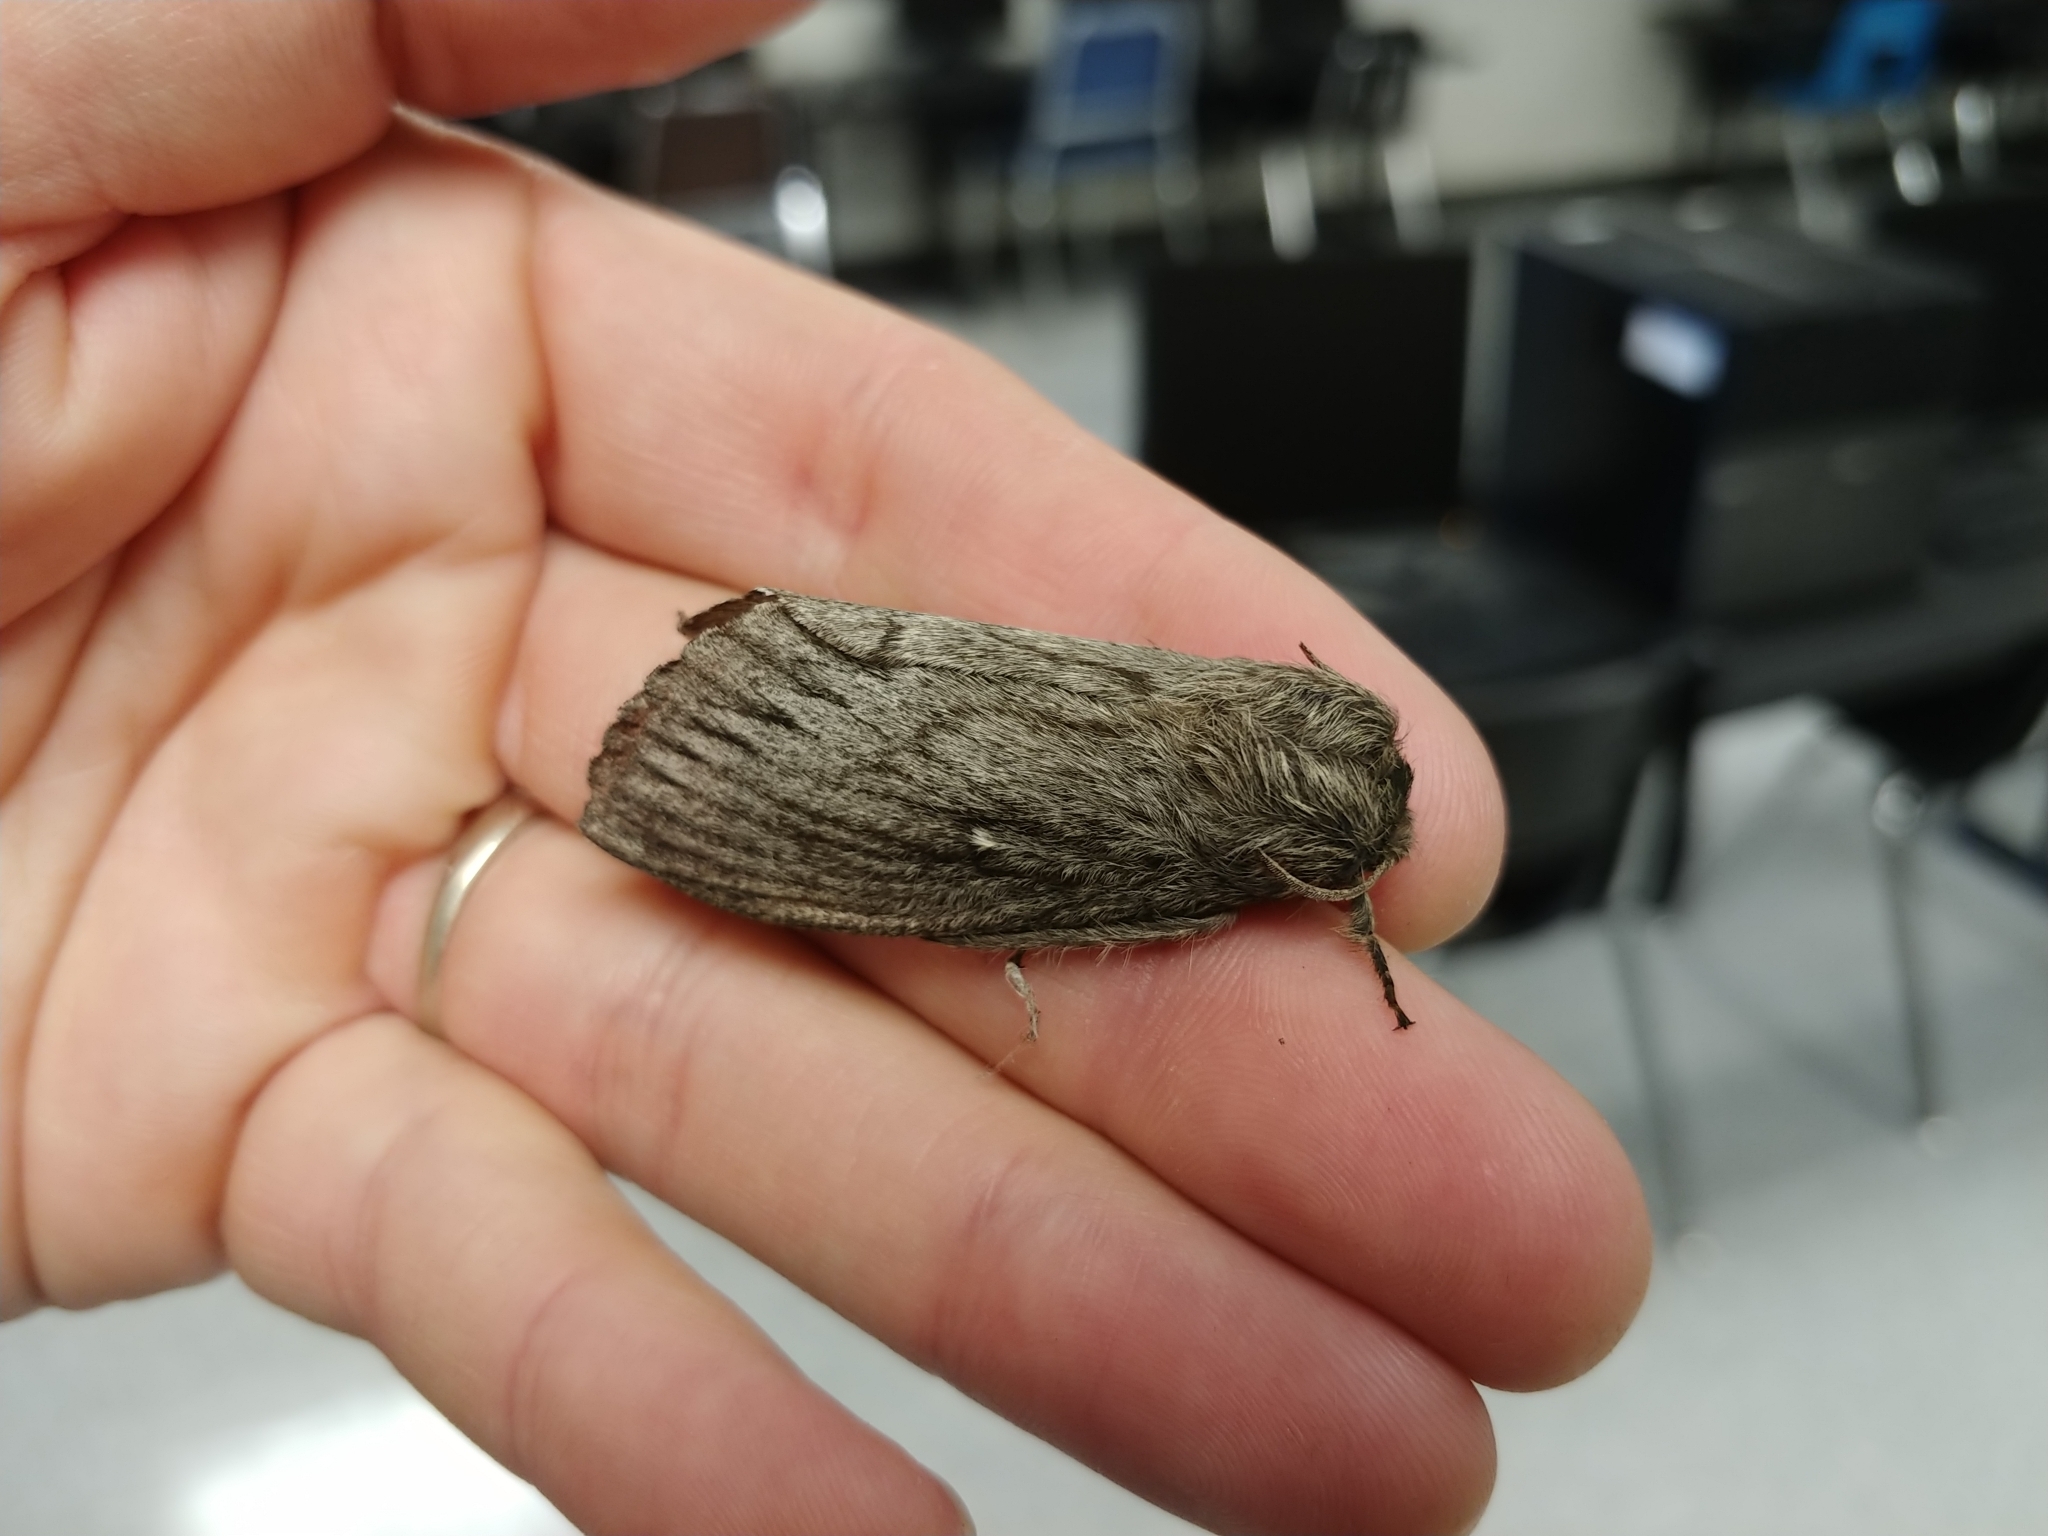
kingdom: Animalia
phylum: Arthropoda
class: Insecta
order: Lepidoptera
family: Lasiocampidae
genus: Gloveria
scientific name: Gloveria arizonensis
